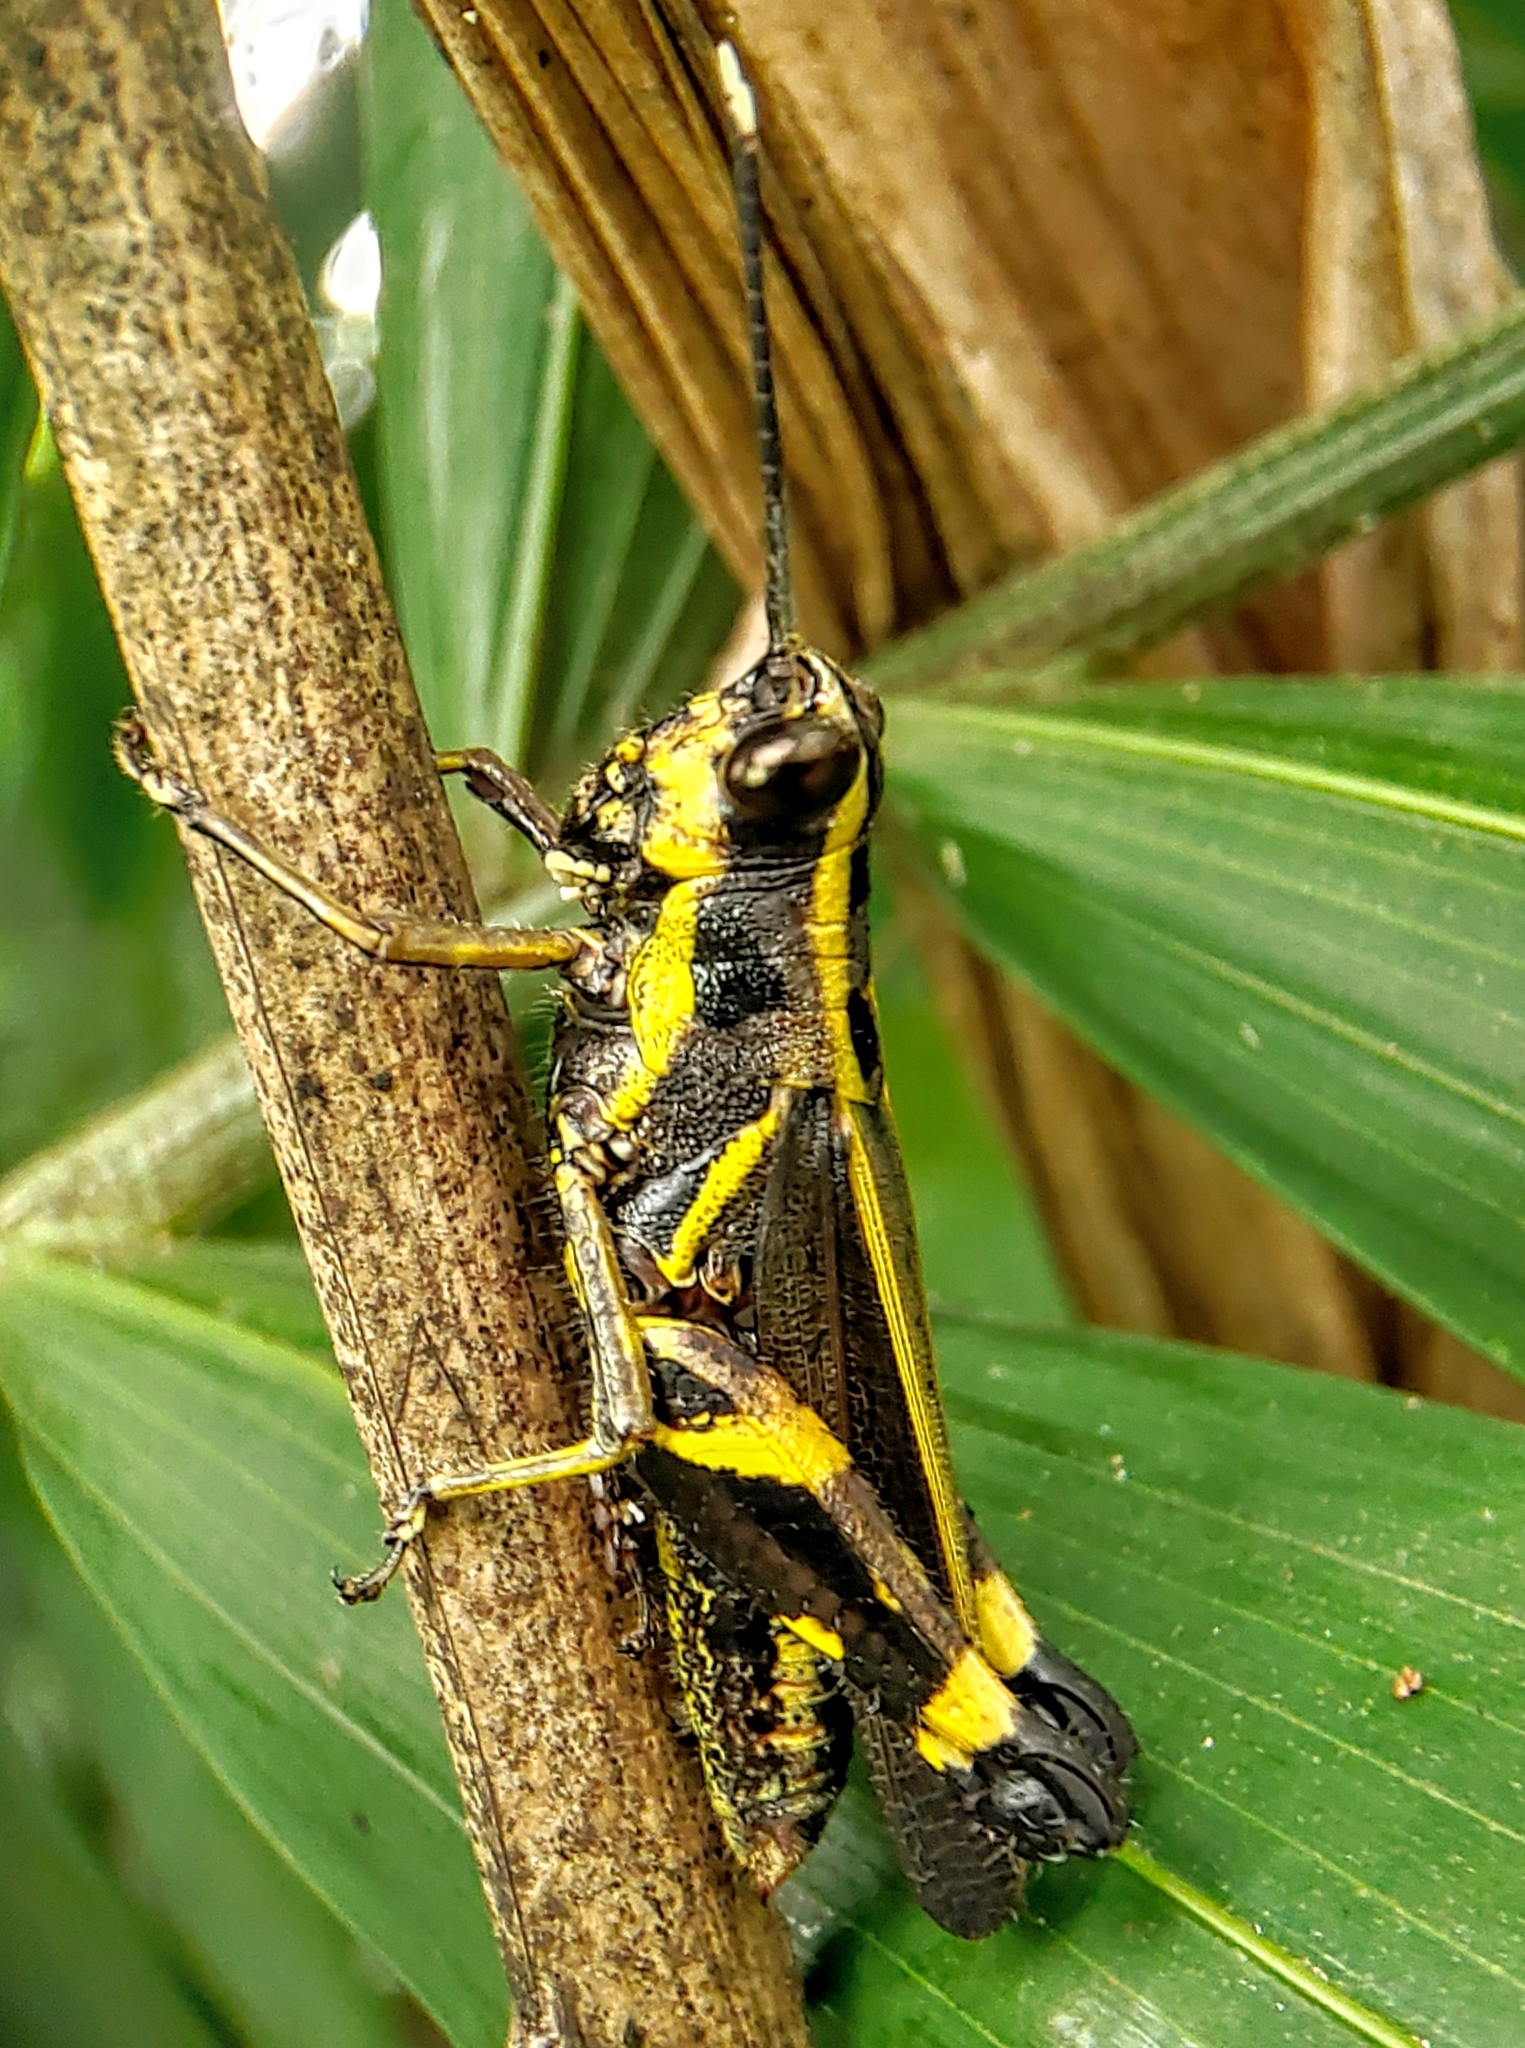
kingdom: Animalia
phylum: Arthropoda
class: Insecta
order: Orthoptera
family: Acrididae
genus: Traulia
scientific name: Traulia azureipennis
